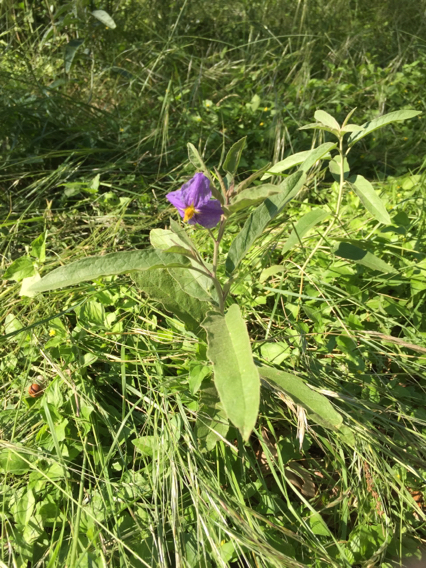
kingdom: Plantae
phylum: Tracheophyta
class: Magnoliopsida
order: Solanales
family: Solanaceae
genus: Solanum
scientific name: Solanum elaeagnifolium
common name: Silverleaf nightshade
